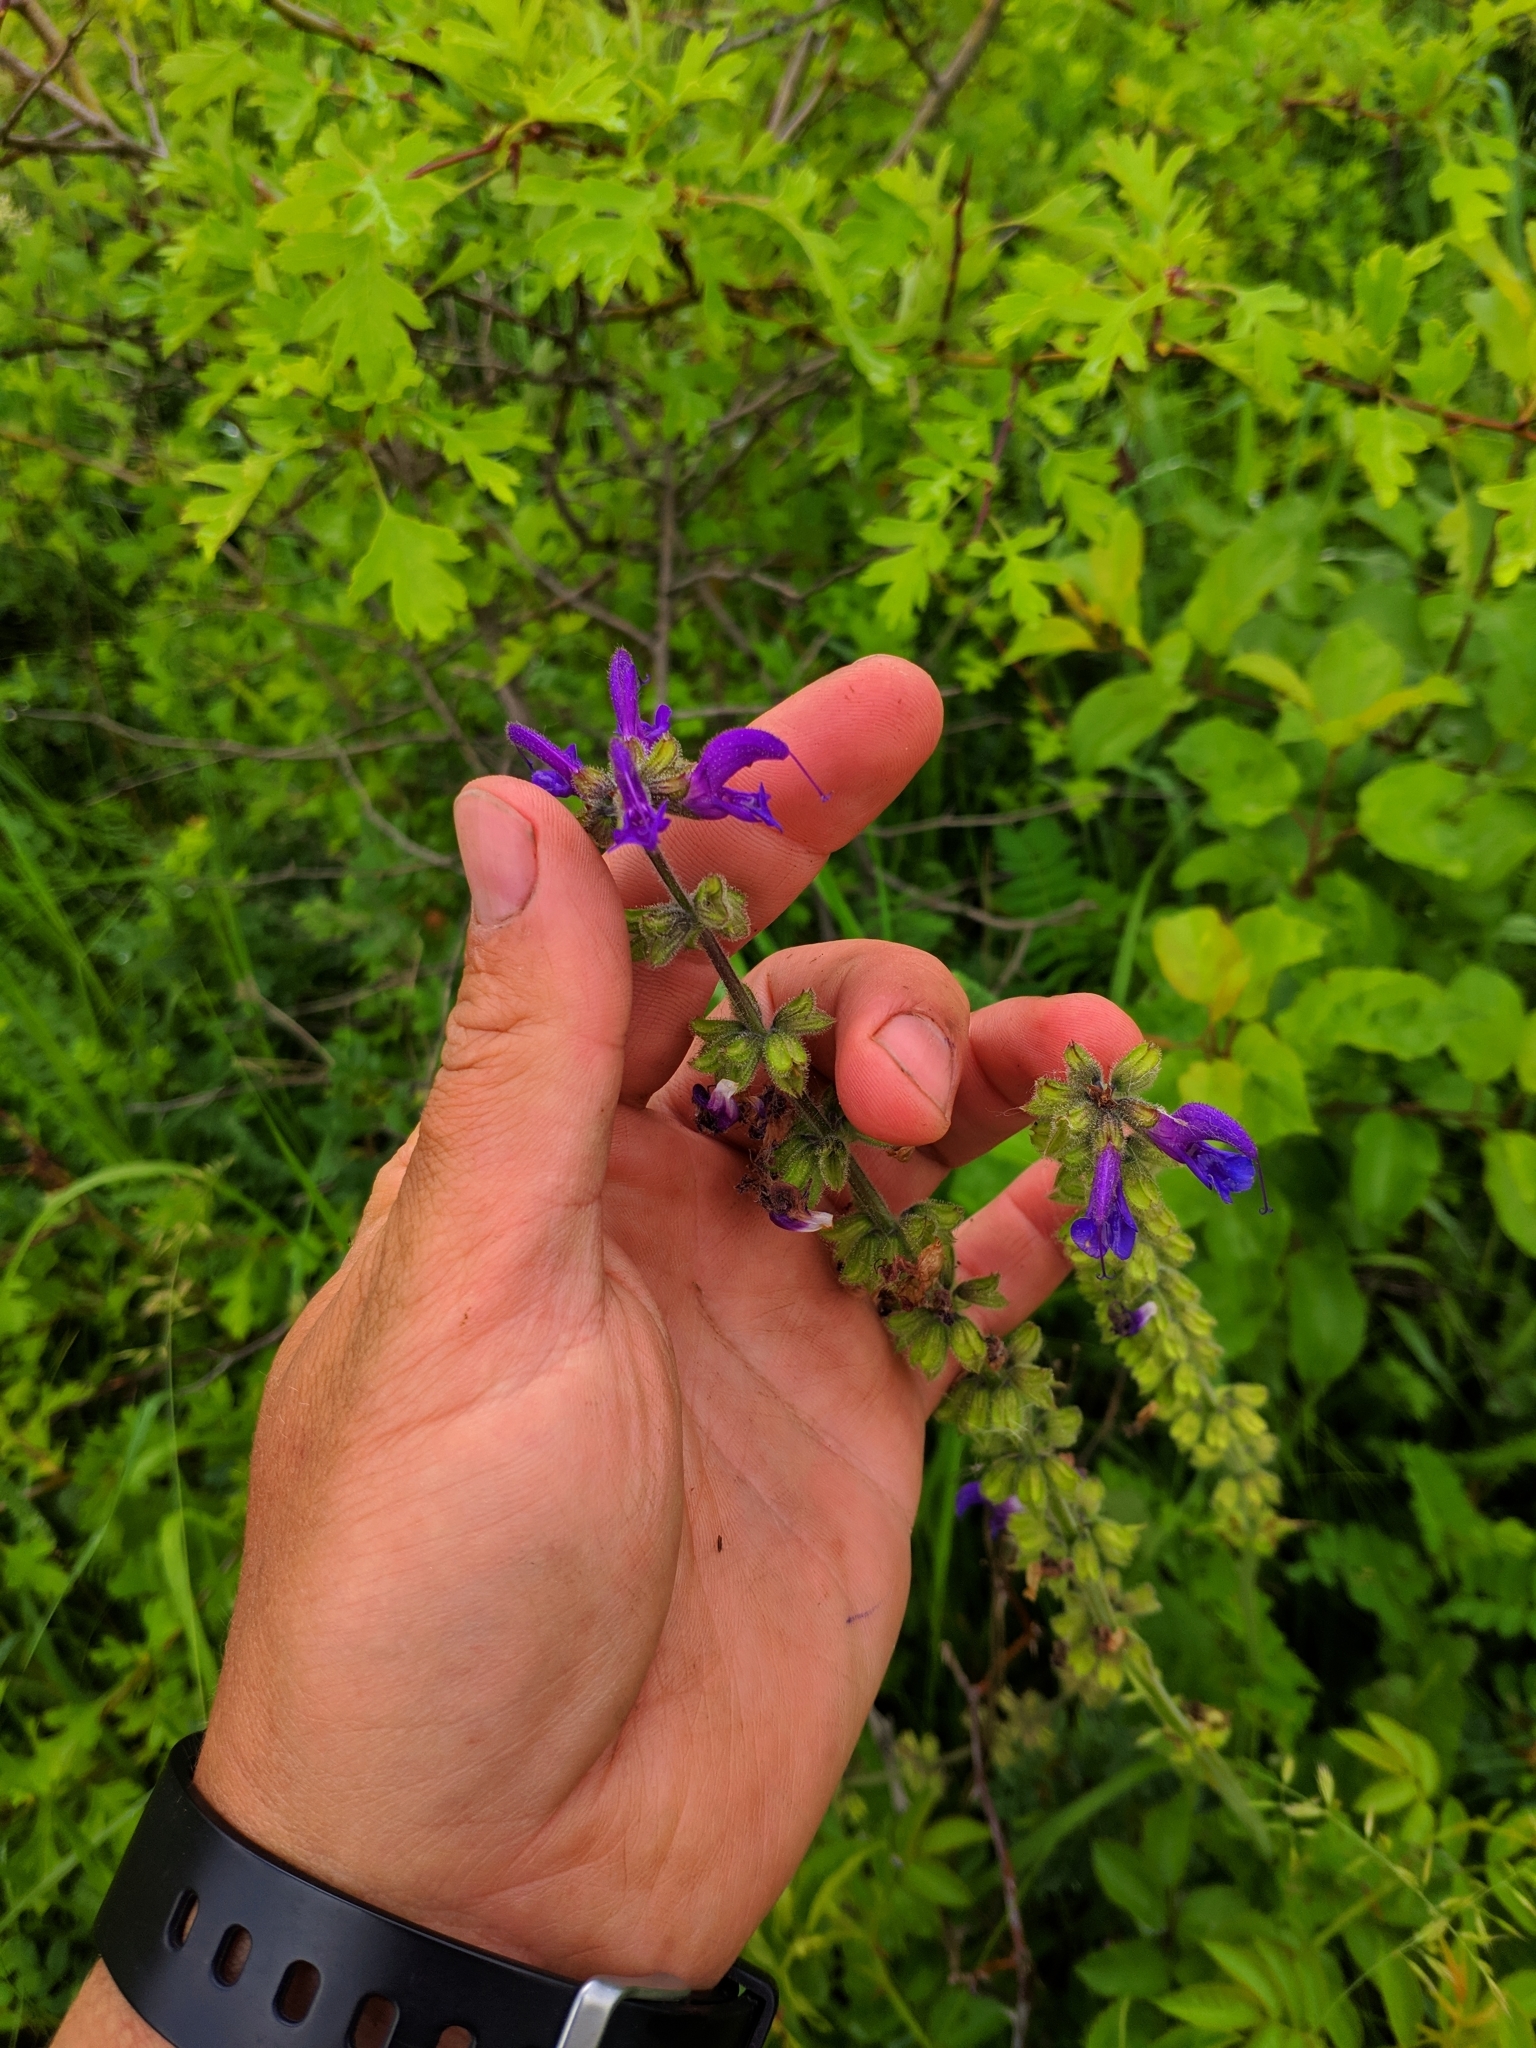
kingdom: Plantae
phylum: Tracheophyta
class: Magnoliopsida
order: Lamiales
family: Lamiaceae
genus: Salvia
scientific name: Salvia pratensis
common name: Meadow sage
